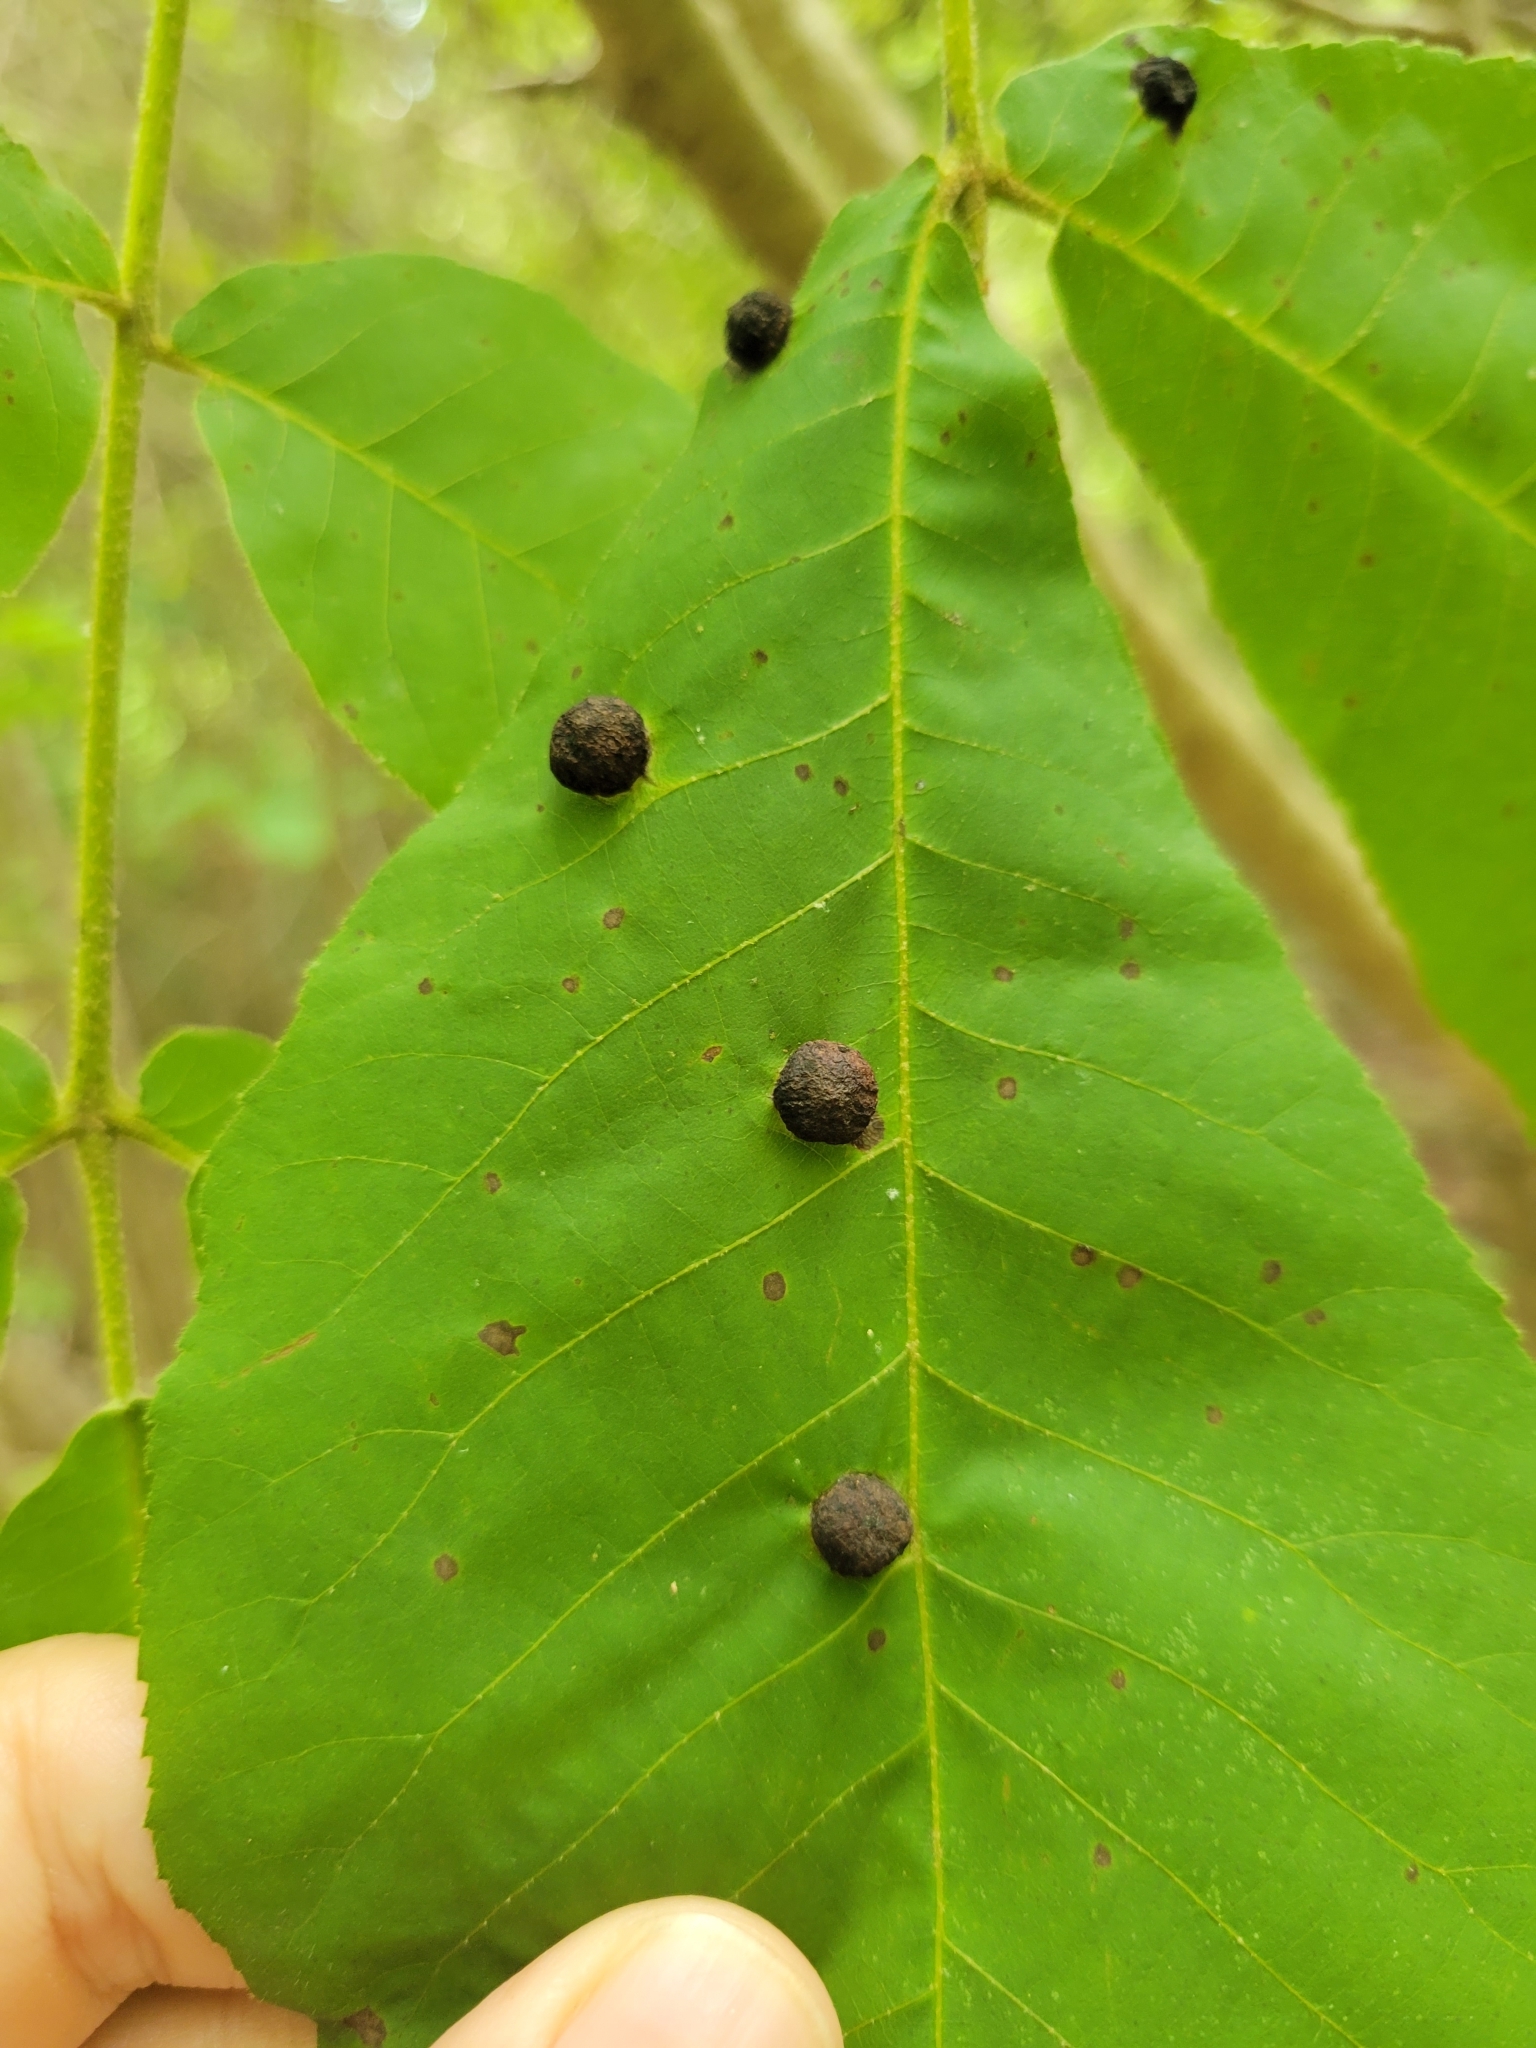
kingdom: Animalia
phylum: Arthropoda
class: Insecta
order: Hemiptera
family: Phylloxeridae
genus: Daktulosphaira
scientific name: Daktulosphaira conicum
